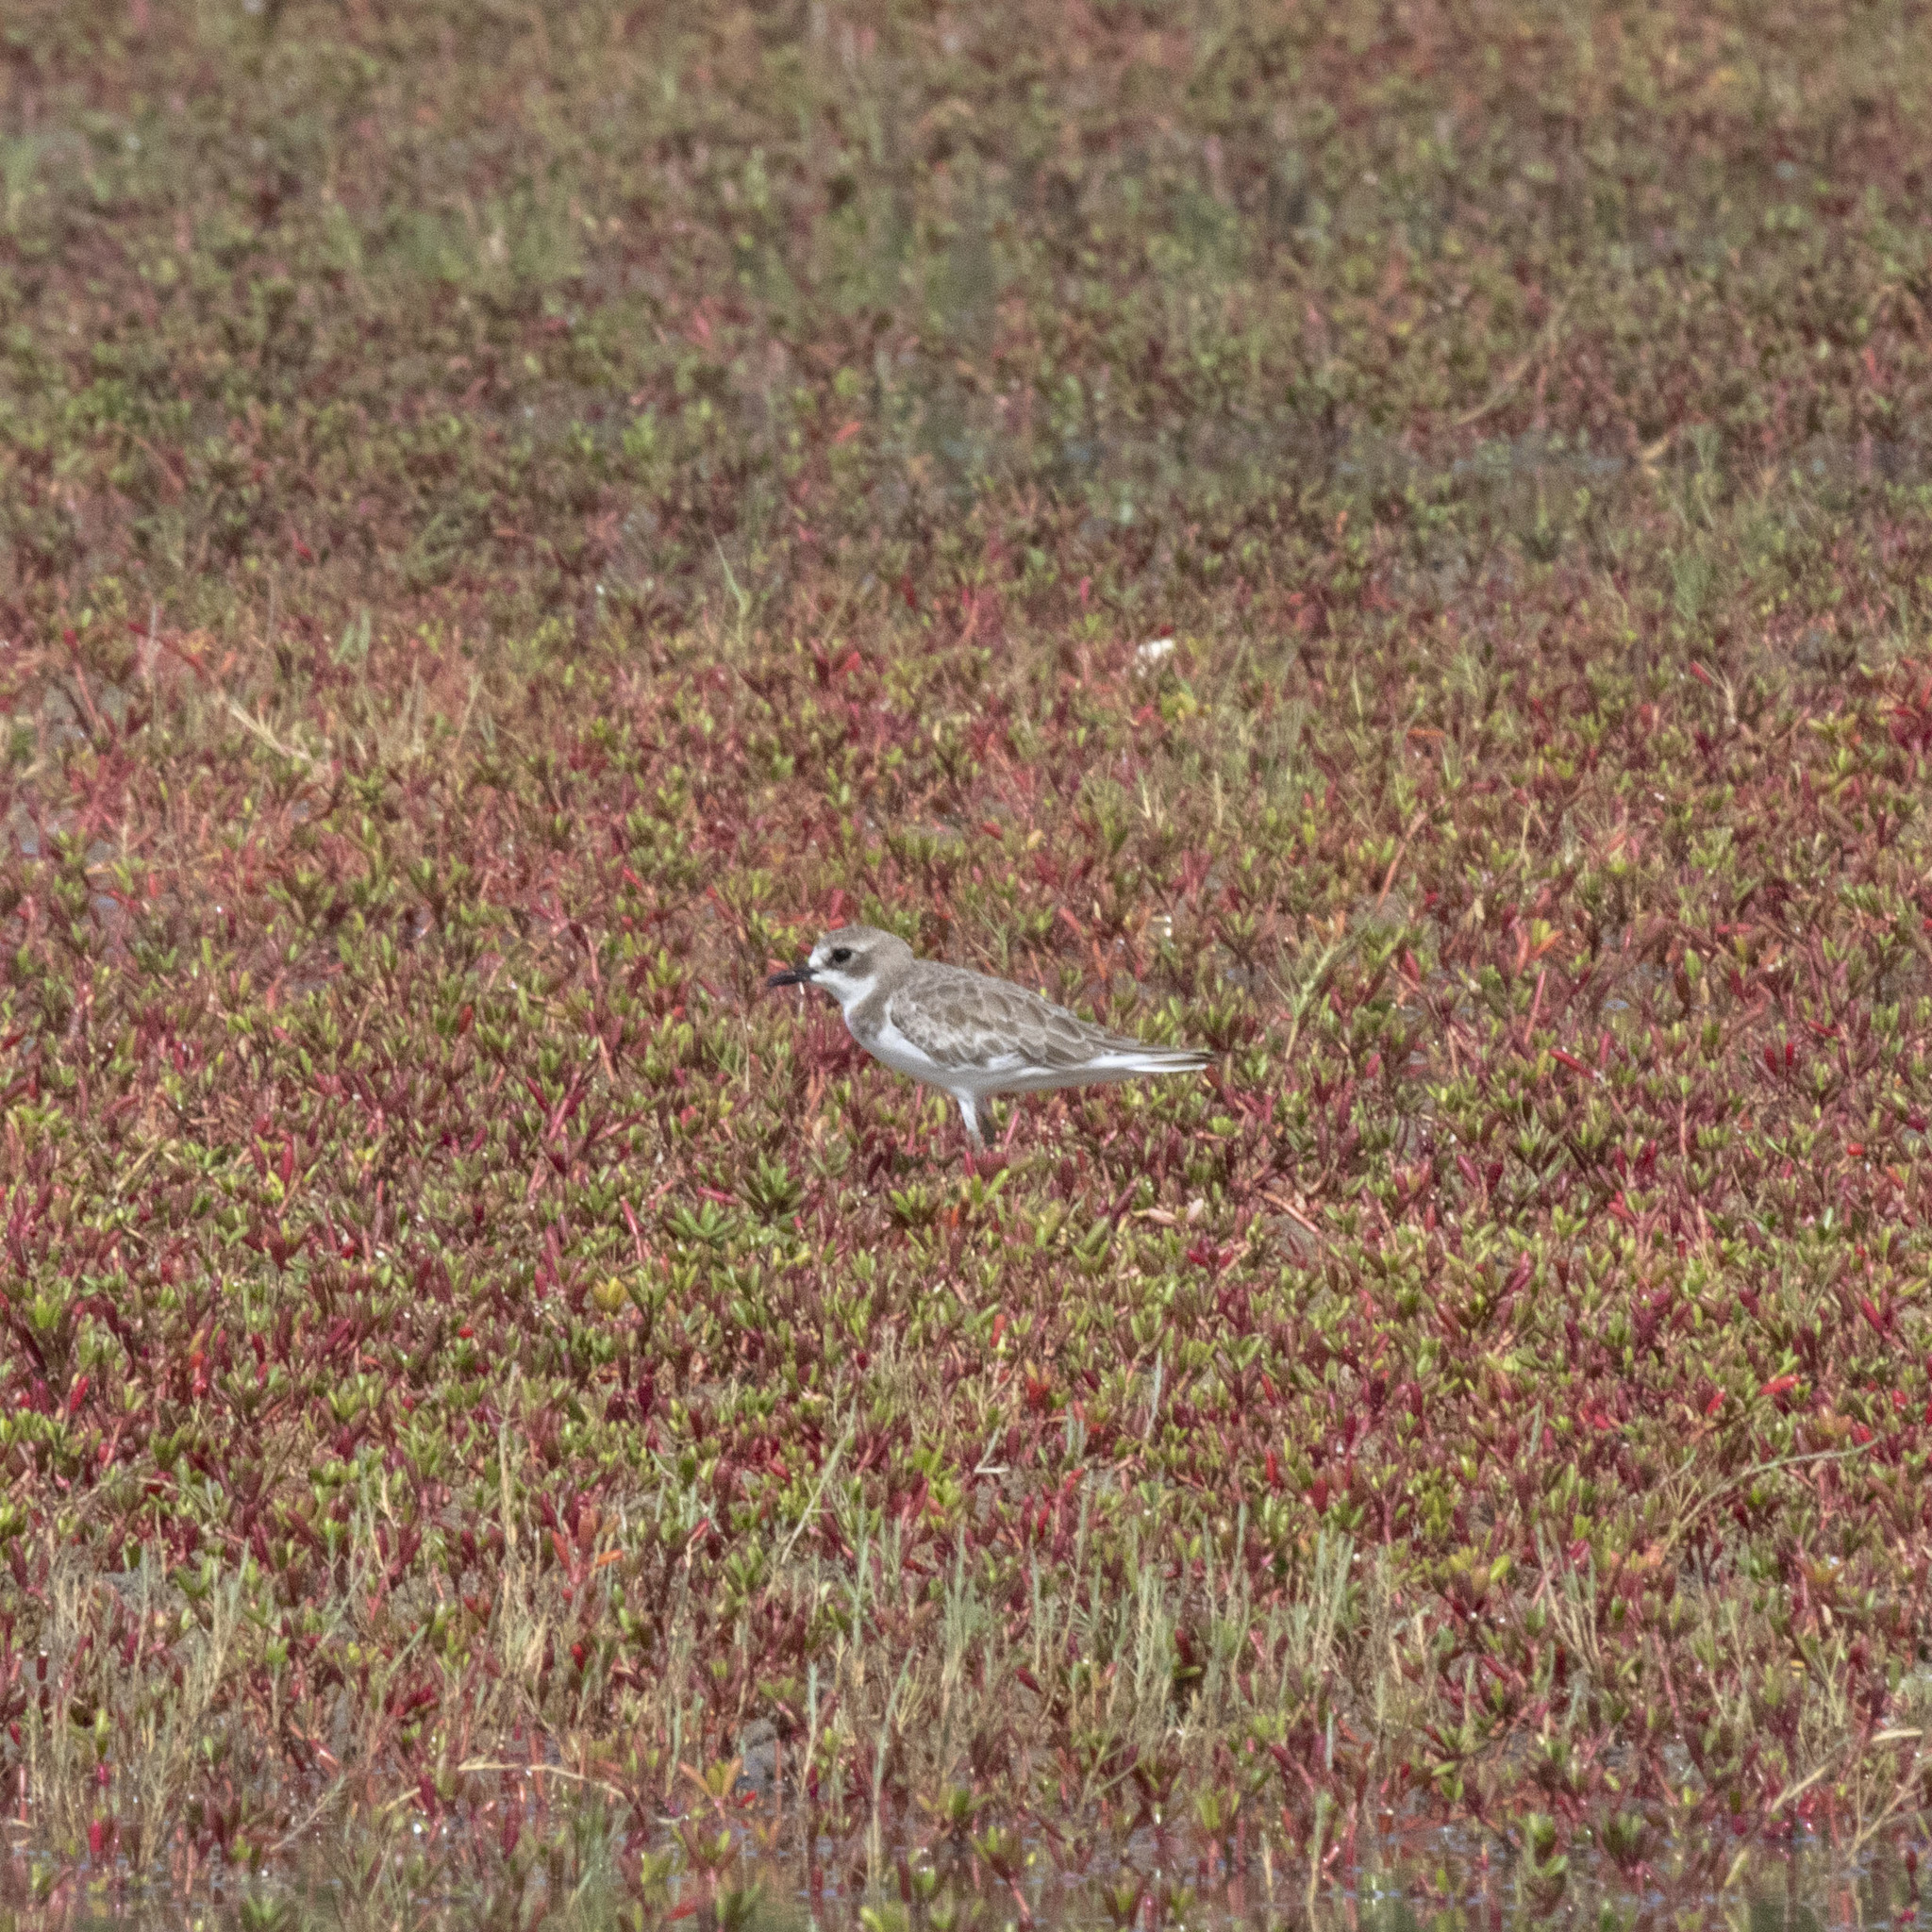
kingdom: Animalia
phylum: Chordata
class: Aves
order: Charadriiformes
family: Charadriidae
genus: Charadrius
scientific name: Charadrius leschenaultii
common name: Greater sand plover
